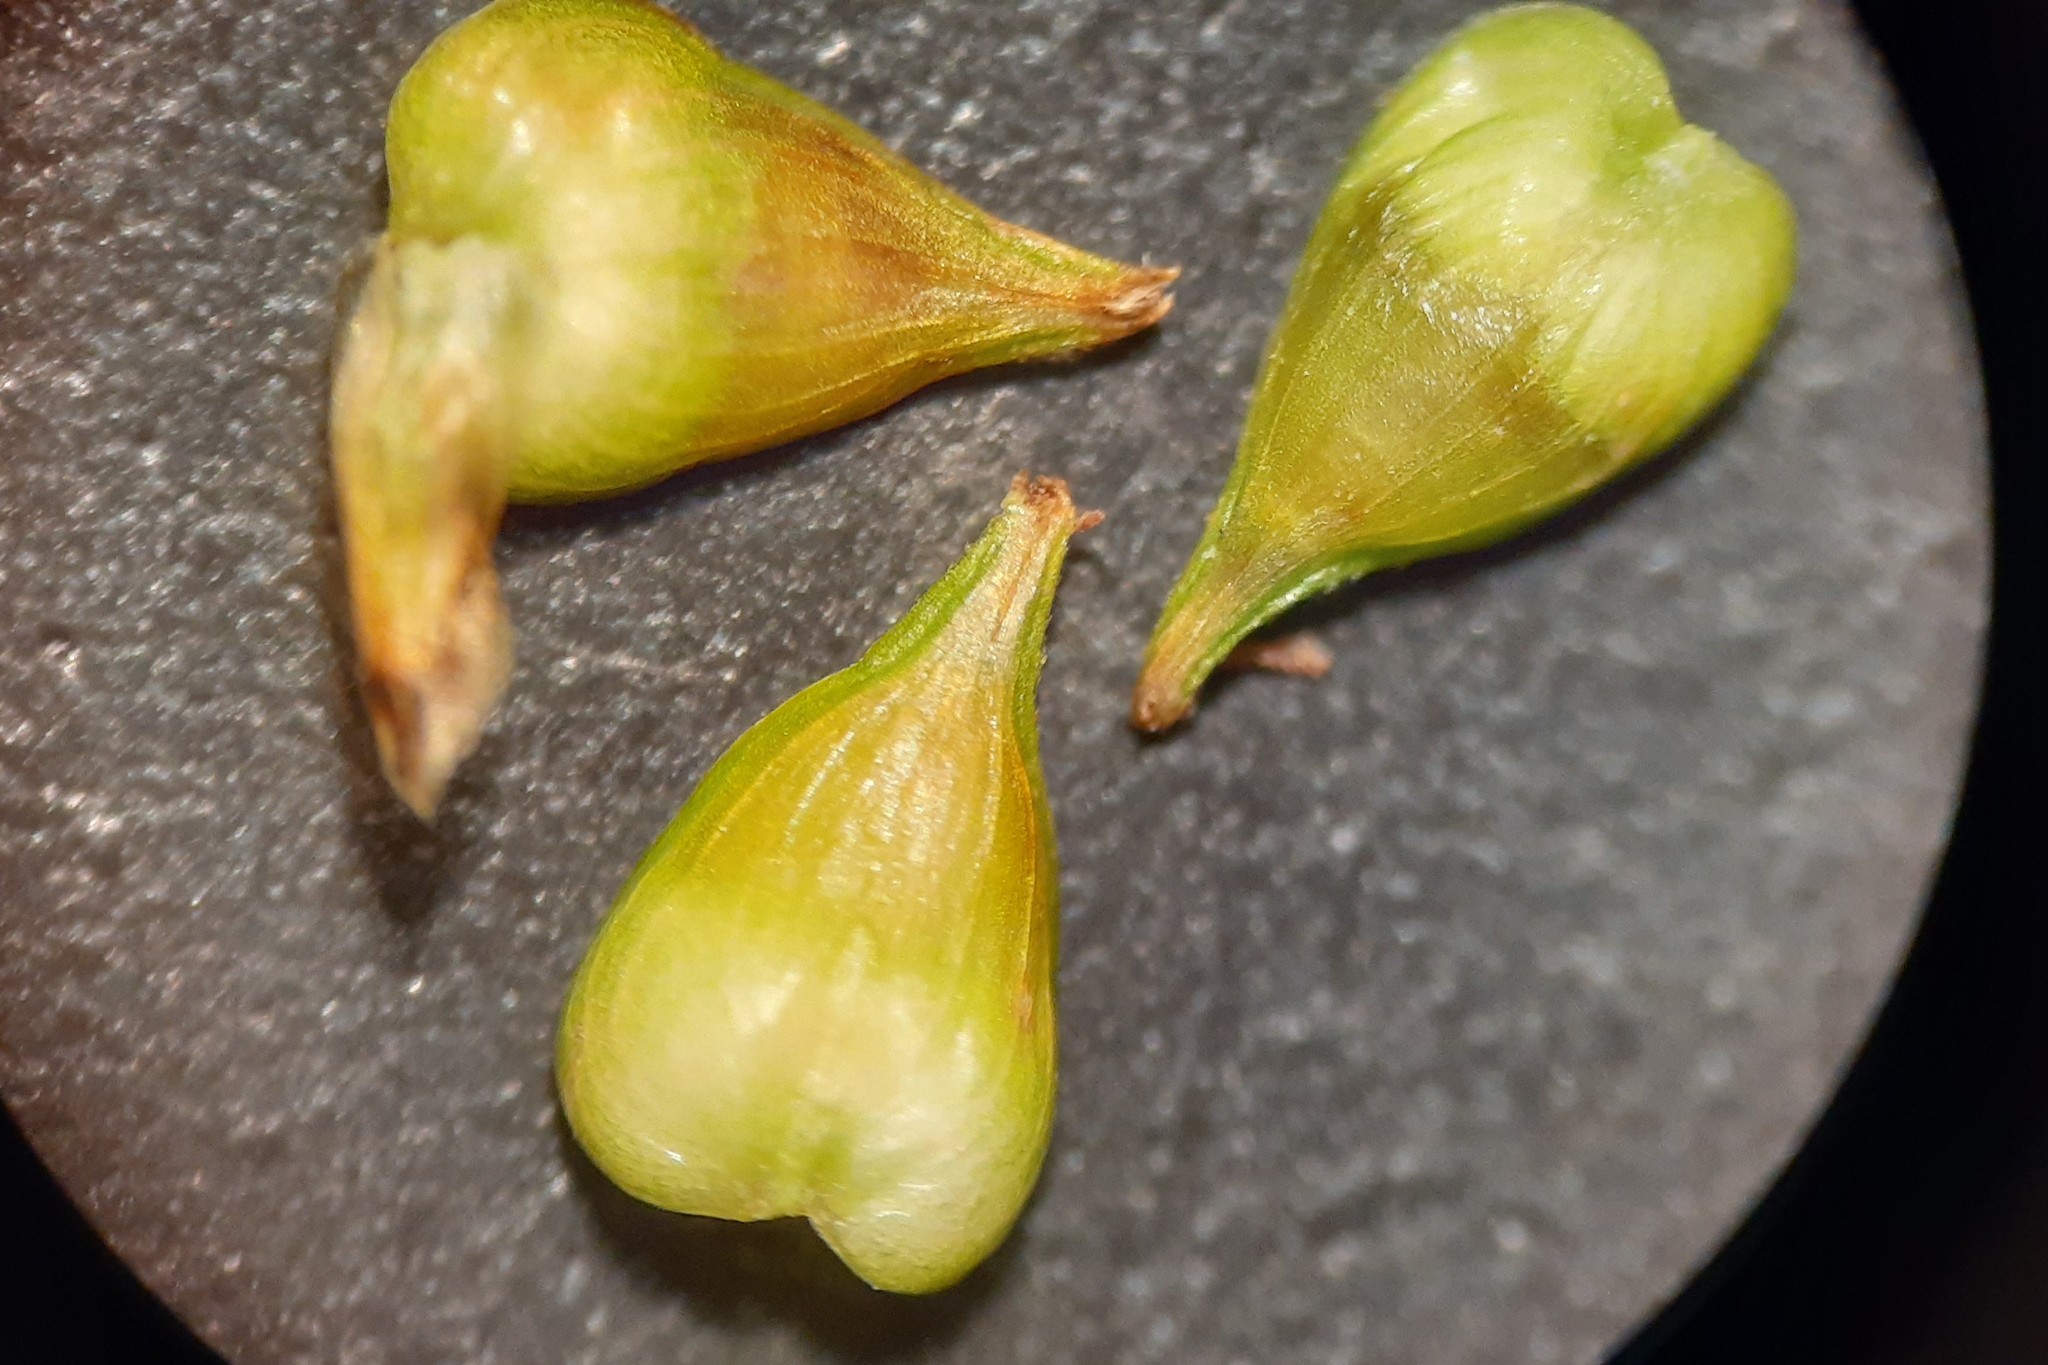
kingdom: Plantae
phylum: Tracheophyta
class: Liliopsida
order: Poales
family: Cyperaceae
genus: Carex
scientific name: Carex atlantica
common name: Atlantic sedge
